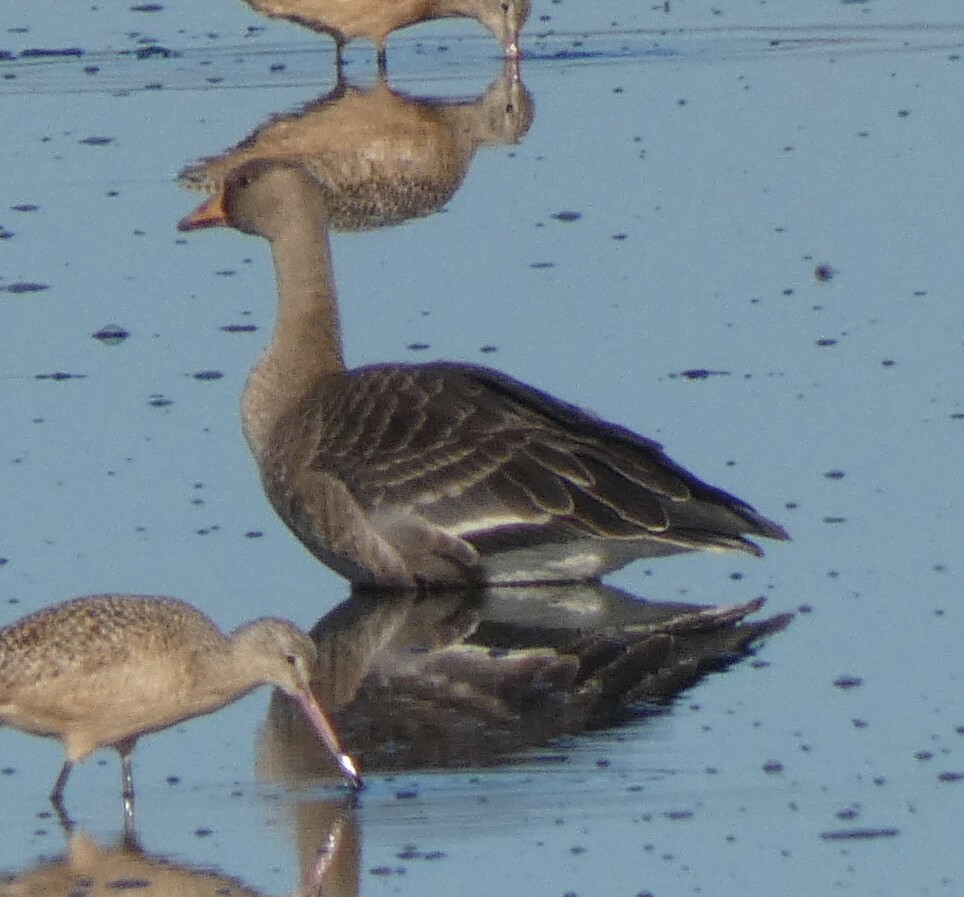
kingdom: Animalia
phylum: Chordata
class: Aves
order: Anseriformes
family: Anatidae
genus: Anser
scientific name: Anser albifrons
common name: Greater white-fronted goose
